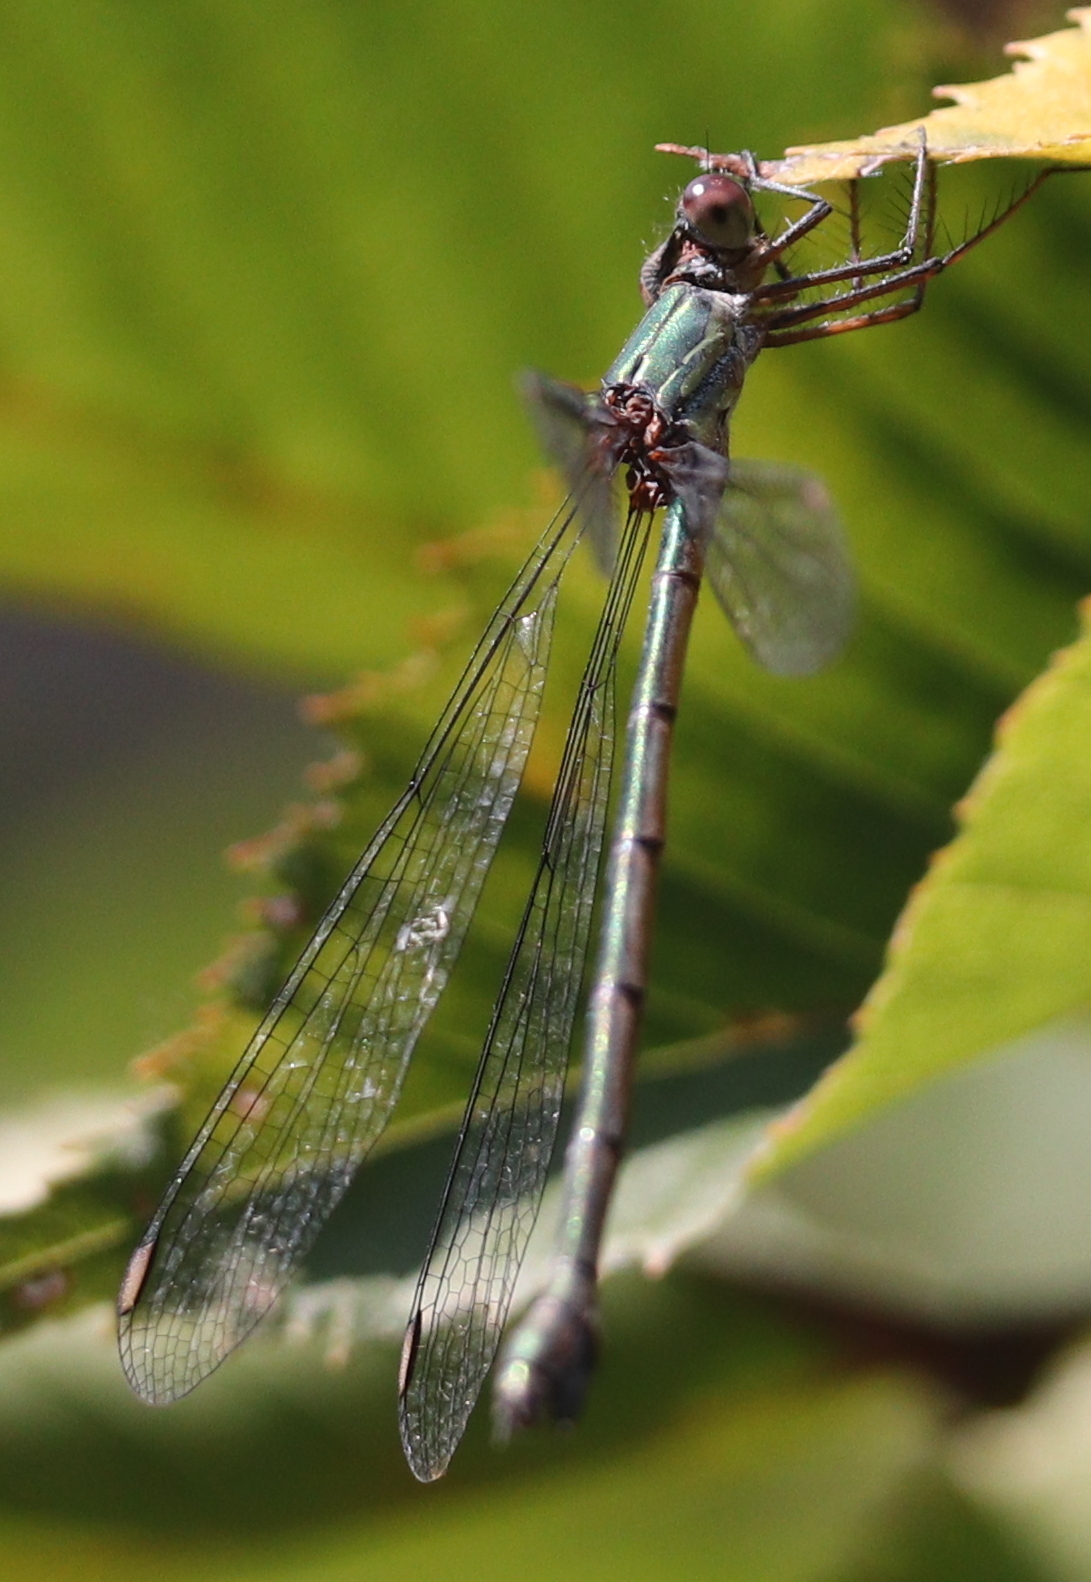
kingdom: Animalia
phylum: Arthropoda
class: Insecta
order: Odonata
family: Lestidae
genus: Chalcolestes
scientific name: Chalcolestes viridis
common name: Green emerald damselfly
